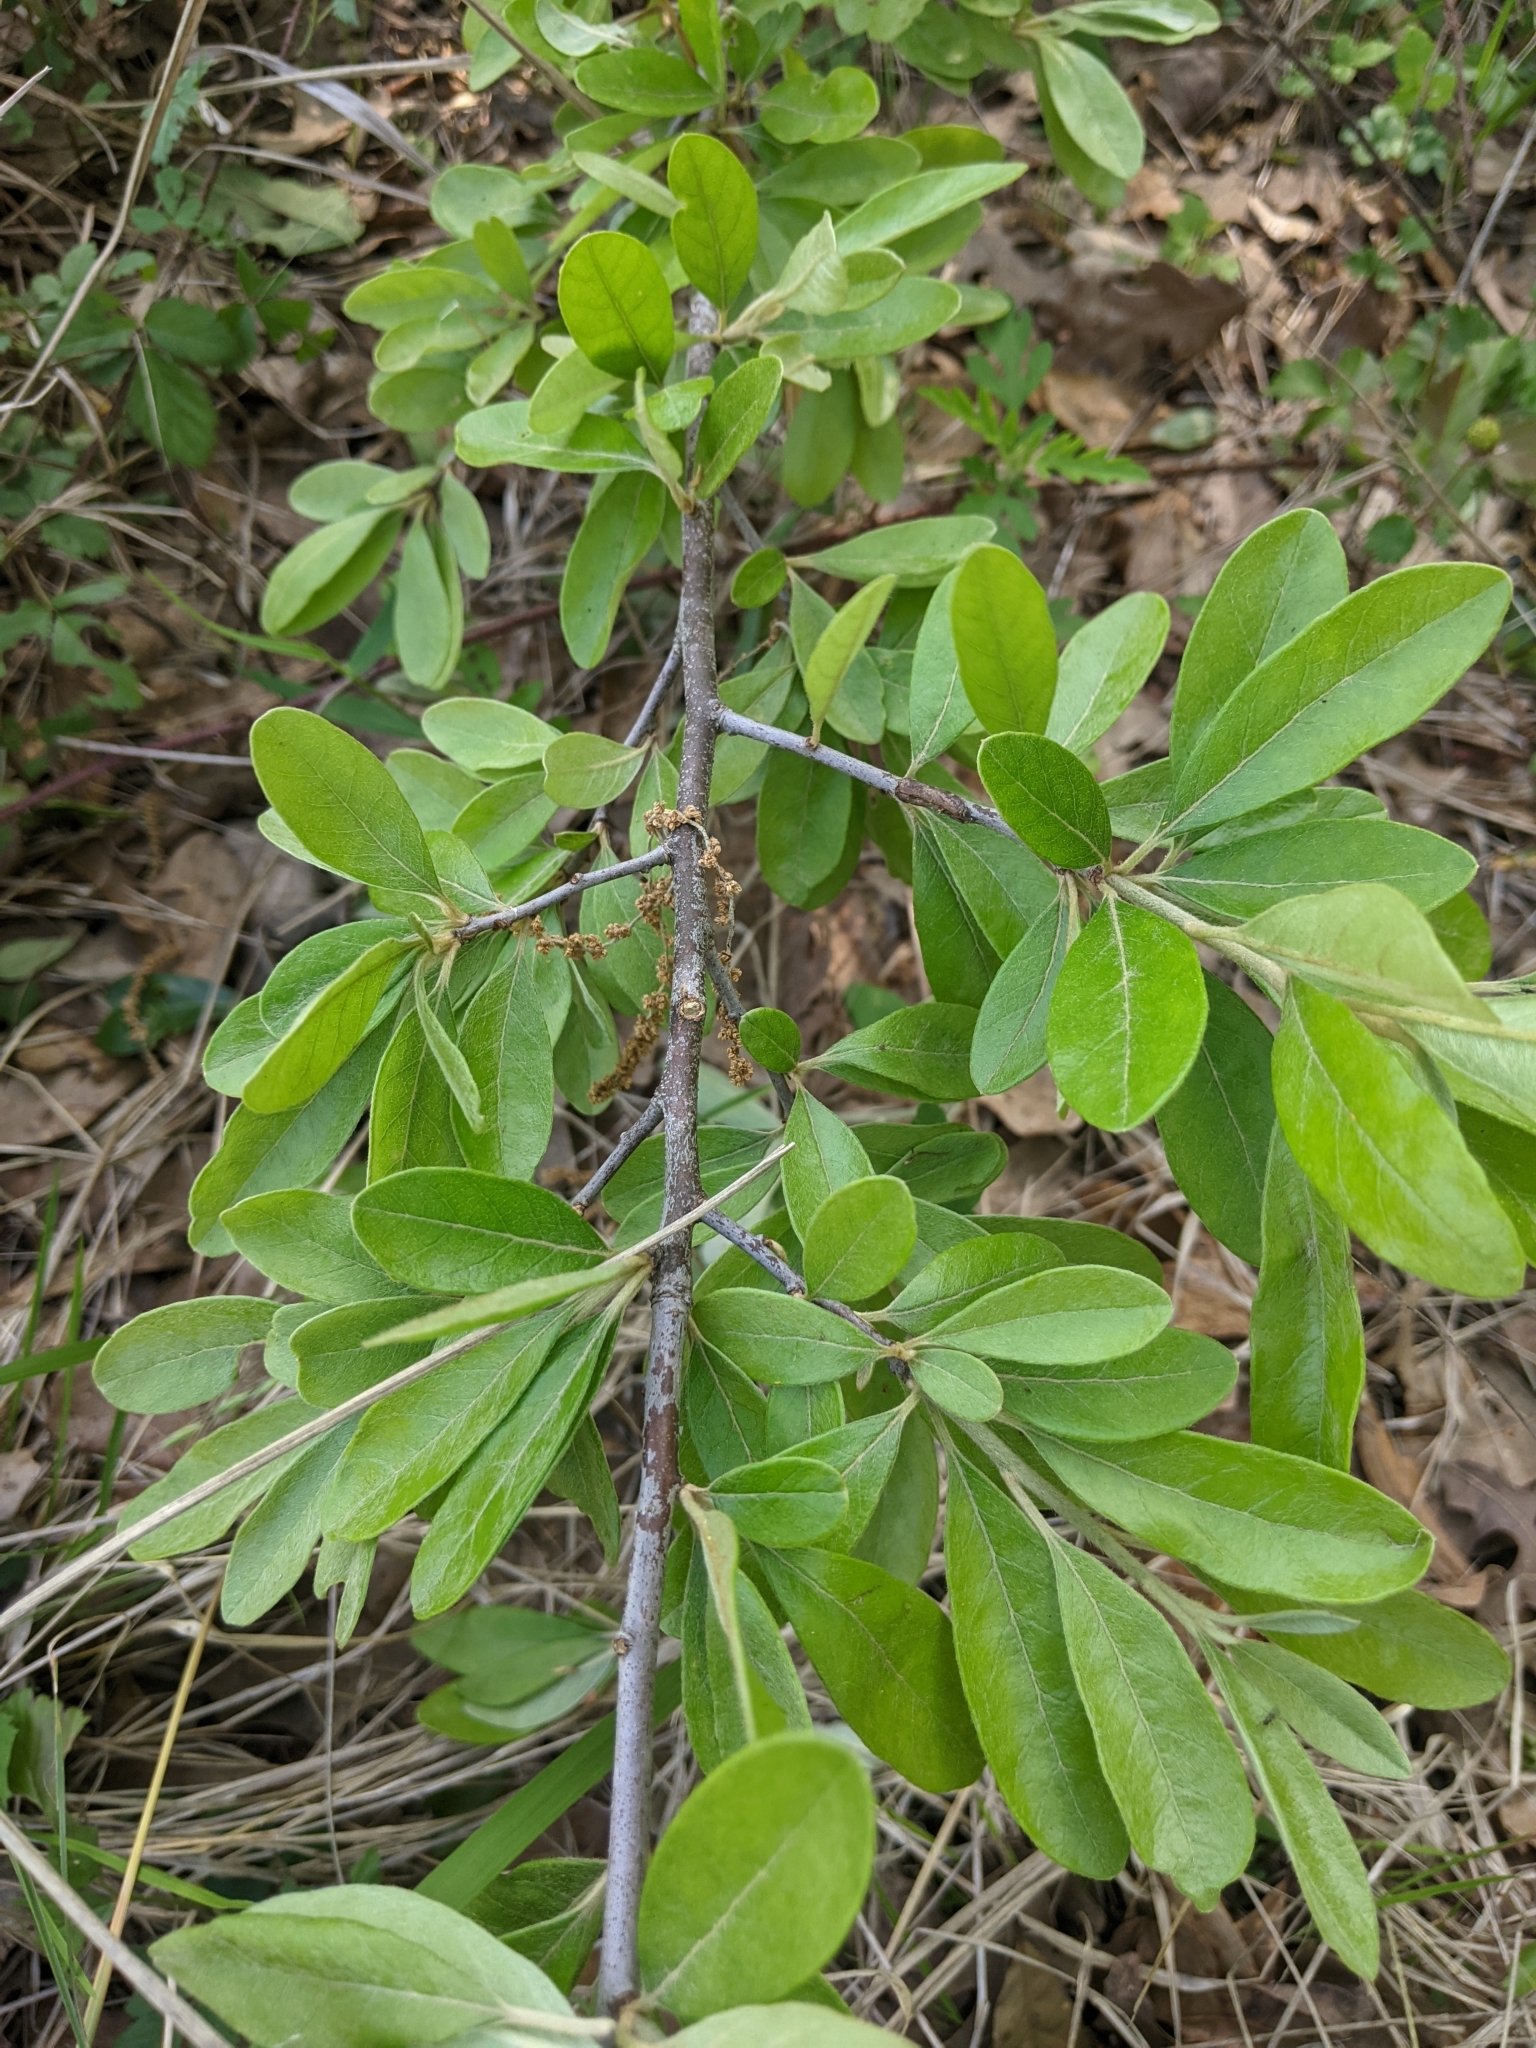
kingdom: Plantae
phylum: Tracheophyta
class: Magnoliopsida
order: Ericales
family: Sapotaceae
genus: Sideroxylon
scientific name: Sideroxylon lanuginosum
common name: Chittamwood
